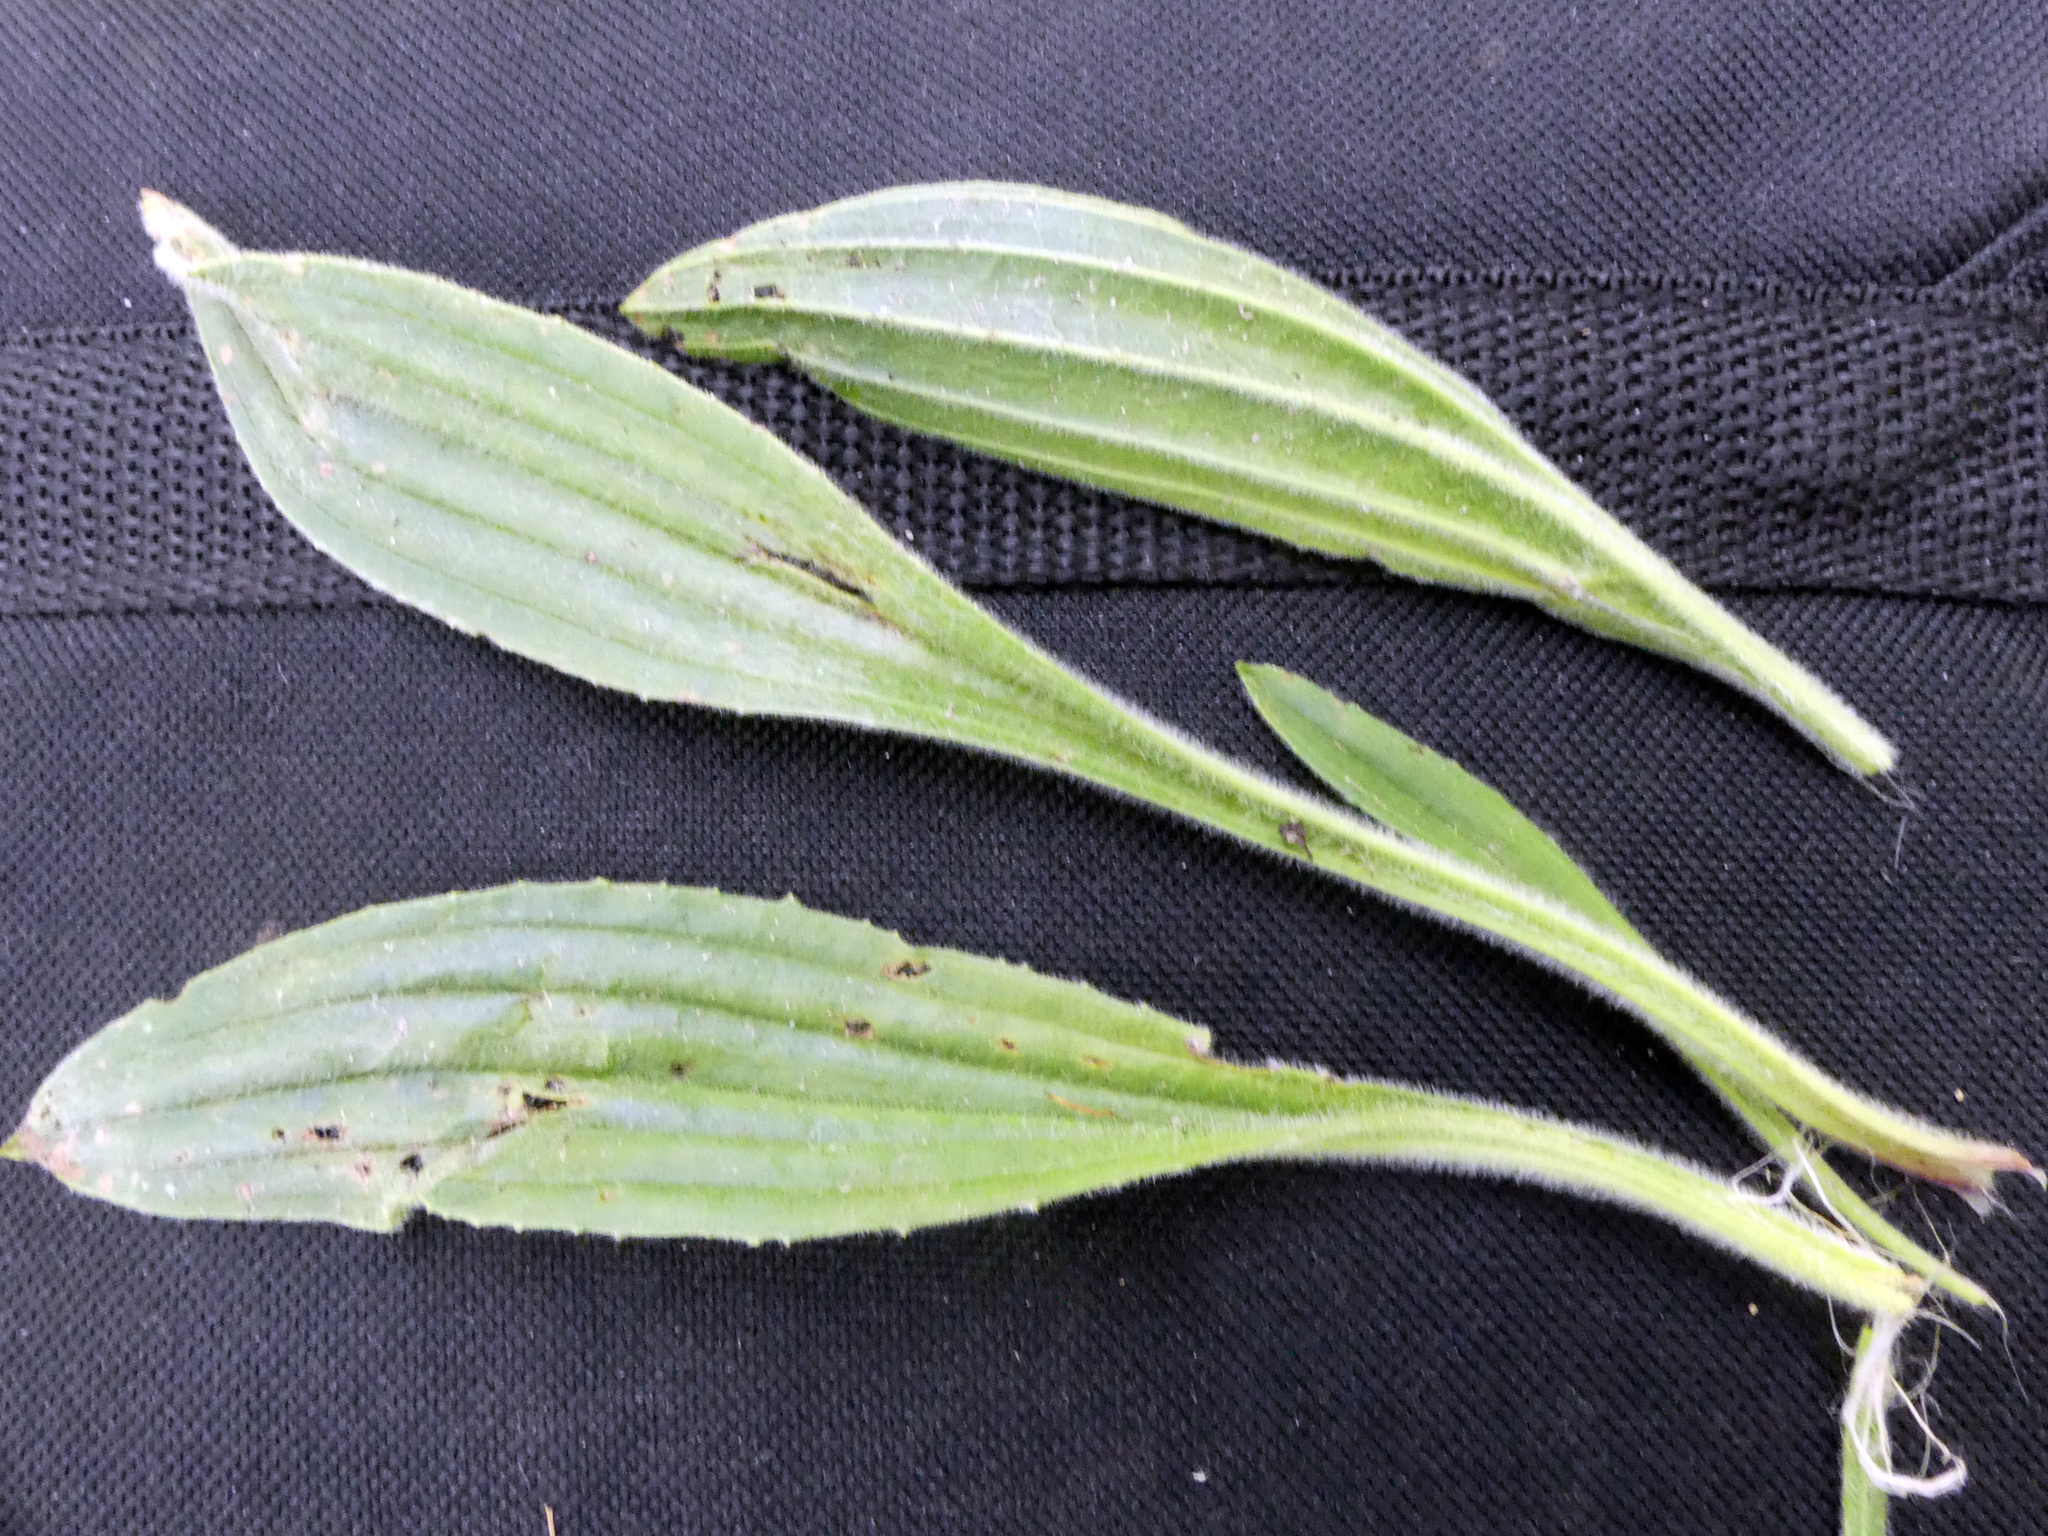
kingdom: Plantae
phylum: Tracheophyta
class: Magnoliopsida
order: Lamiales
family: Plantaginaceae
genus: Plantago
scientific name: Plantago lanceolata
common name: Ribwort plantain
